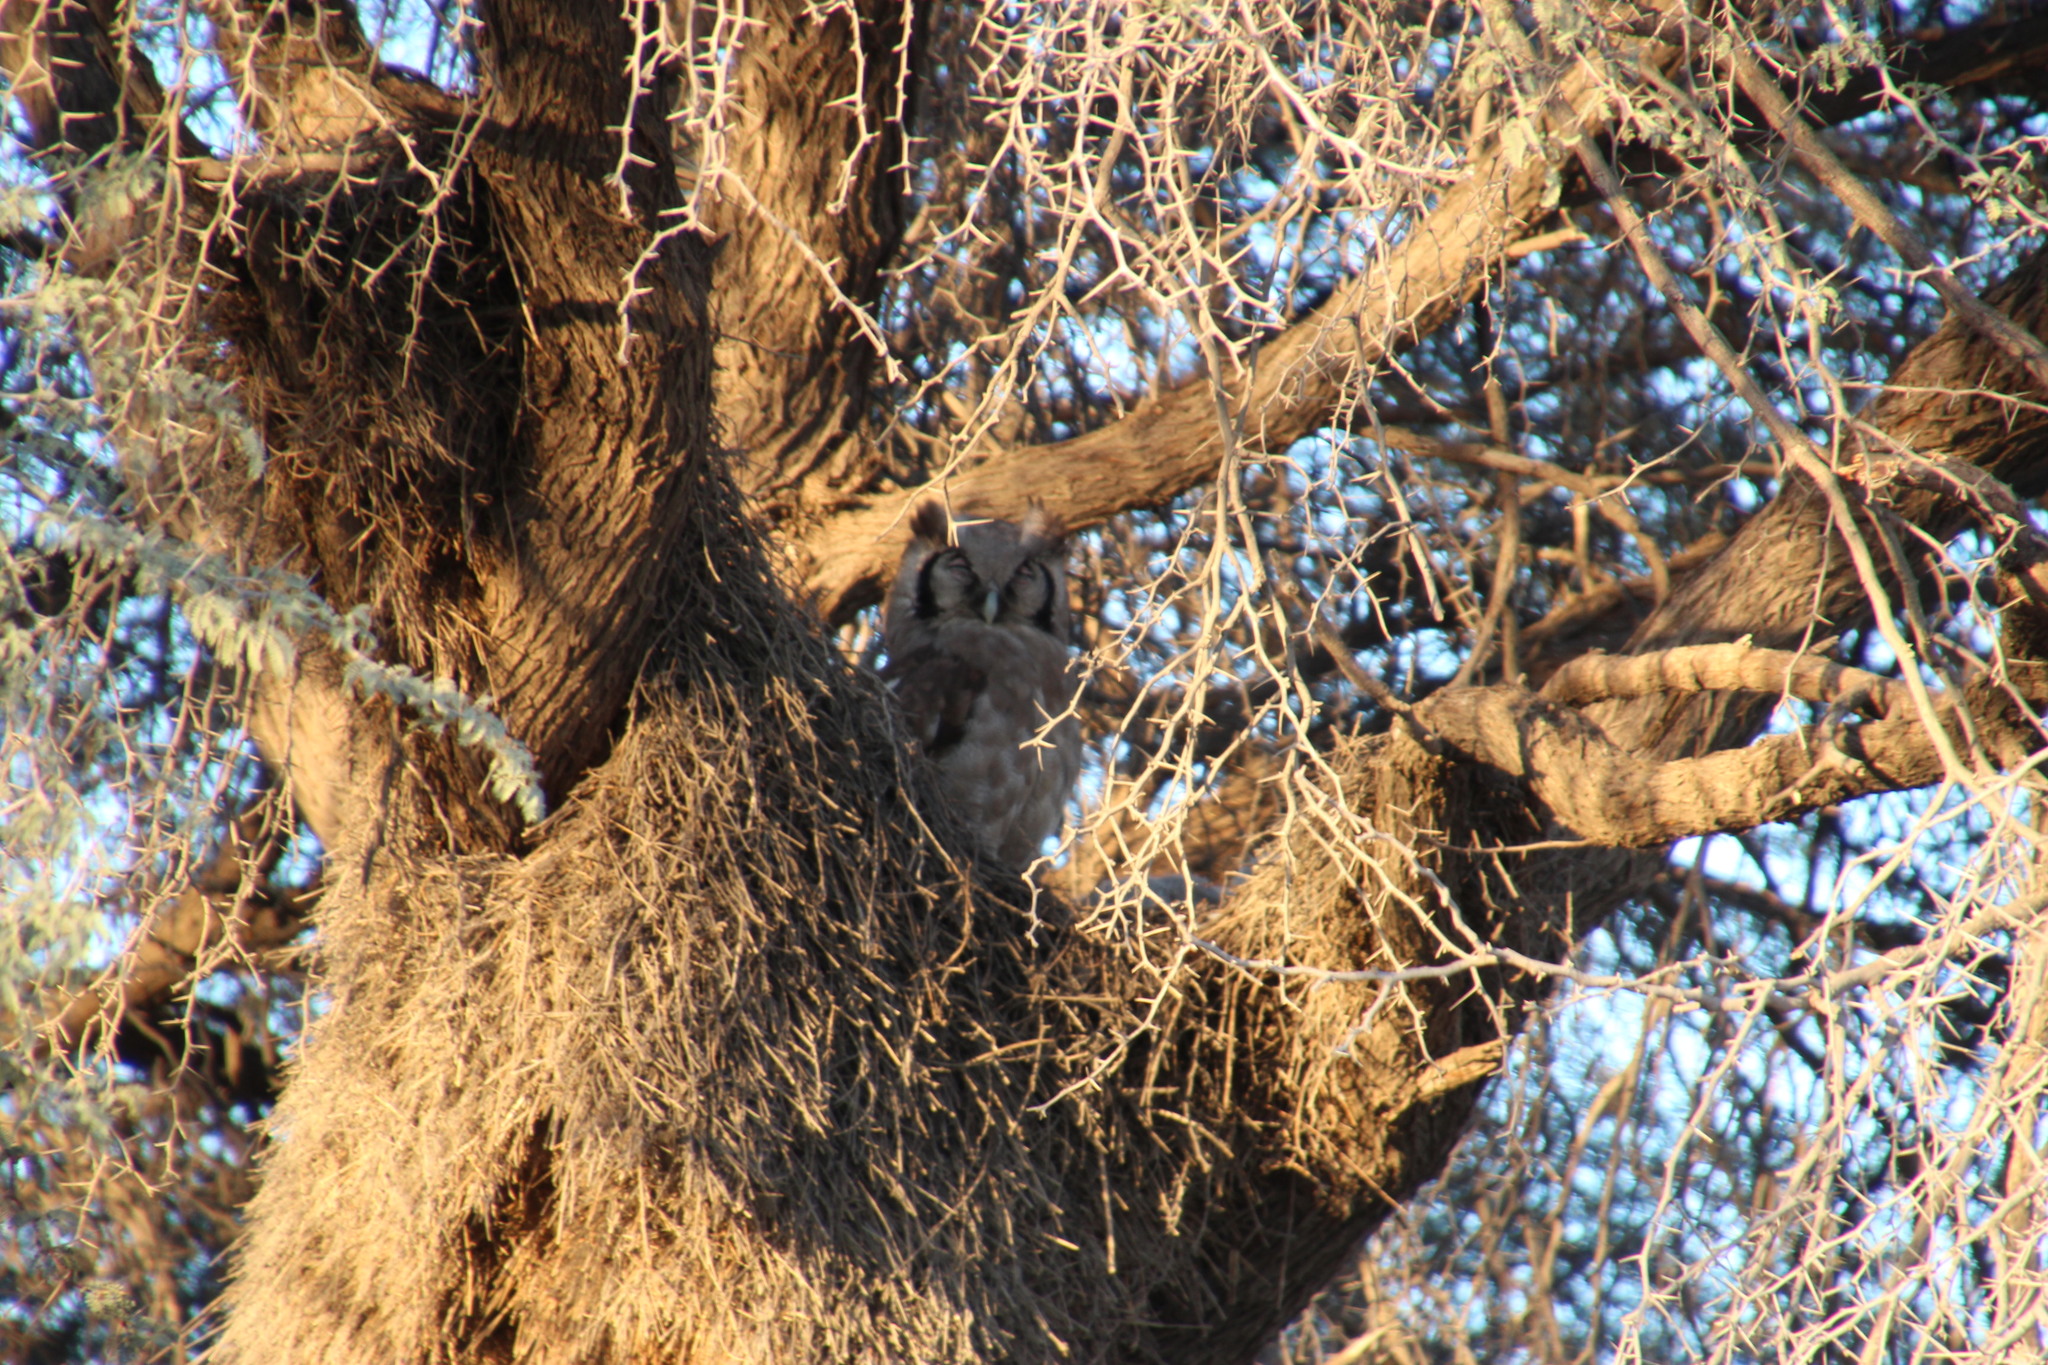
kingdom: Animalia
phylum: Chordata
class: Aves
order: Strigiformes
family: Strigidae
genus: Bubo
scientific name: Bubo lacteus
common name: Verreaux's eagle-owl
